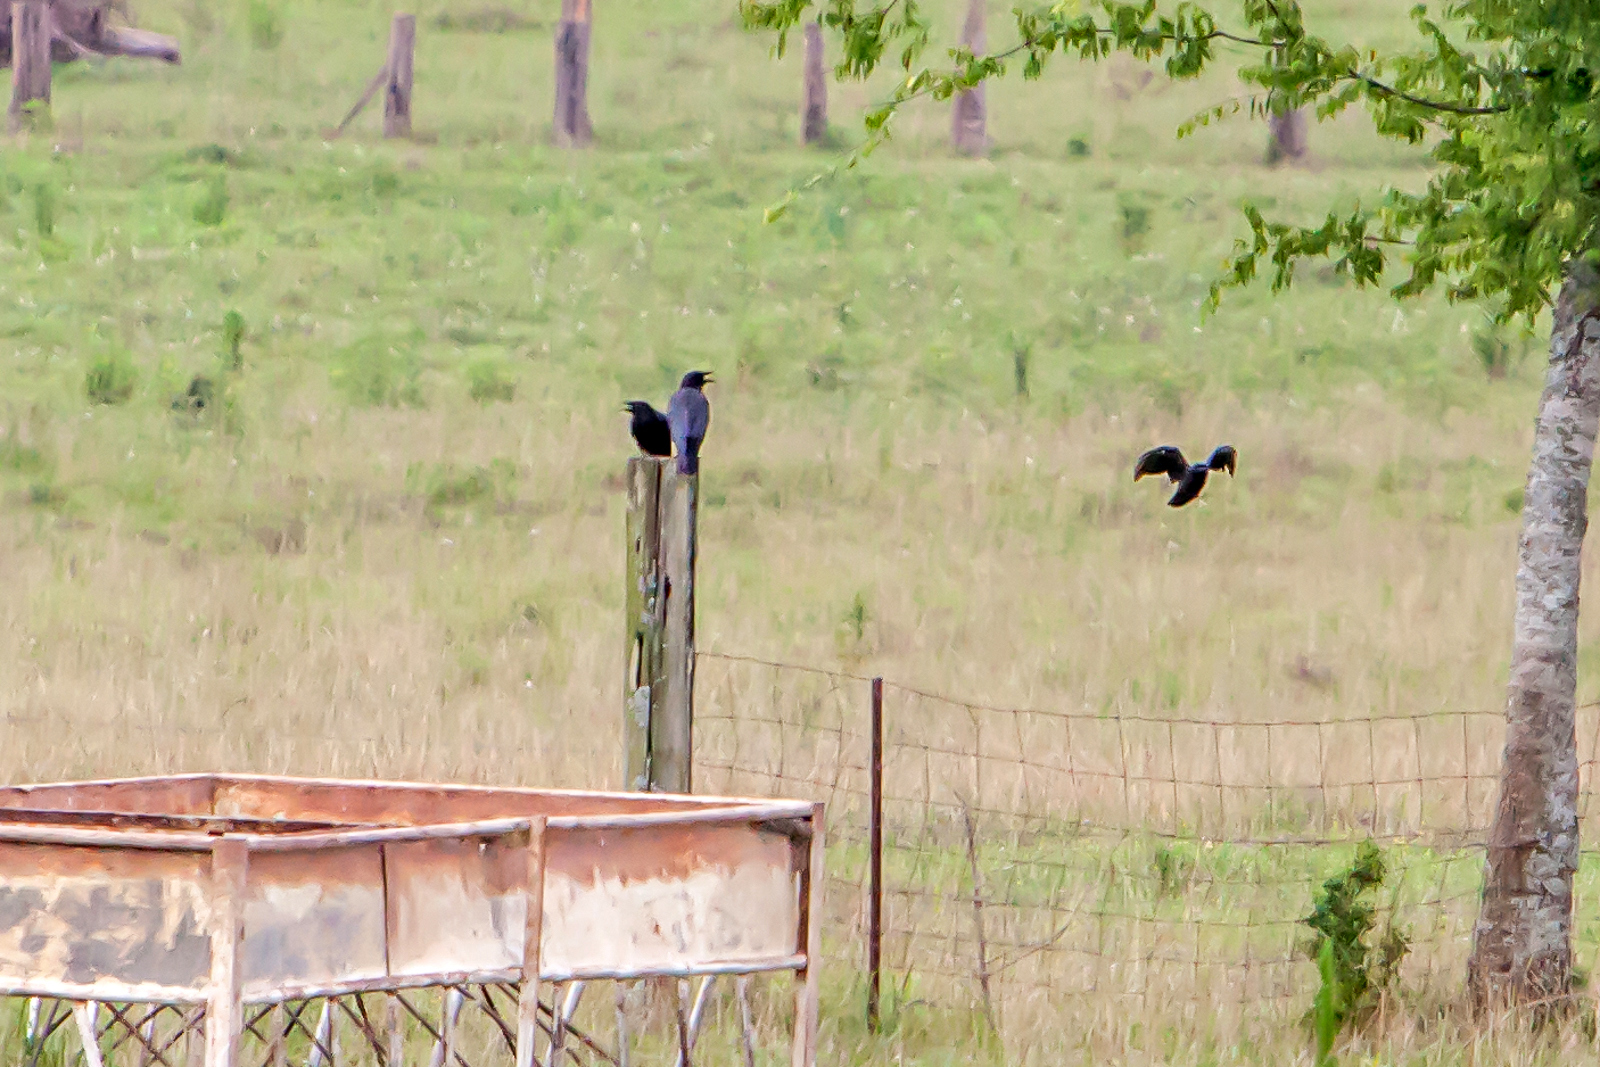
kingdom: Animalia
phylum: Chordata
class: Aves
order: Passeriformes
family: Corvidae
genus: Corvus
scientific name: Corvus brachyrhynchos
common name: American crow
